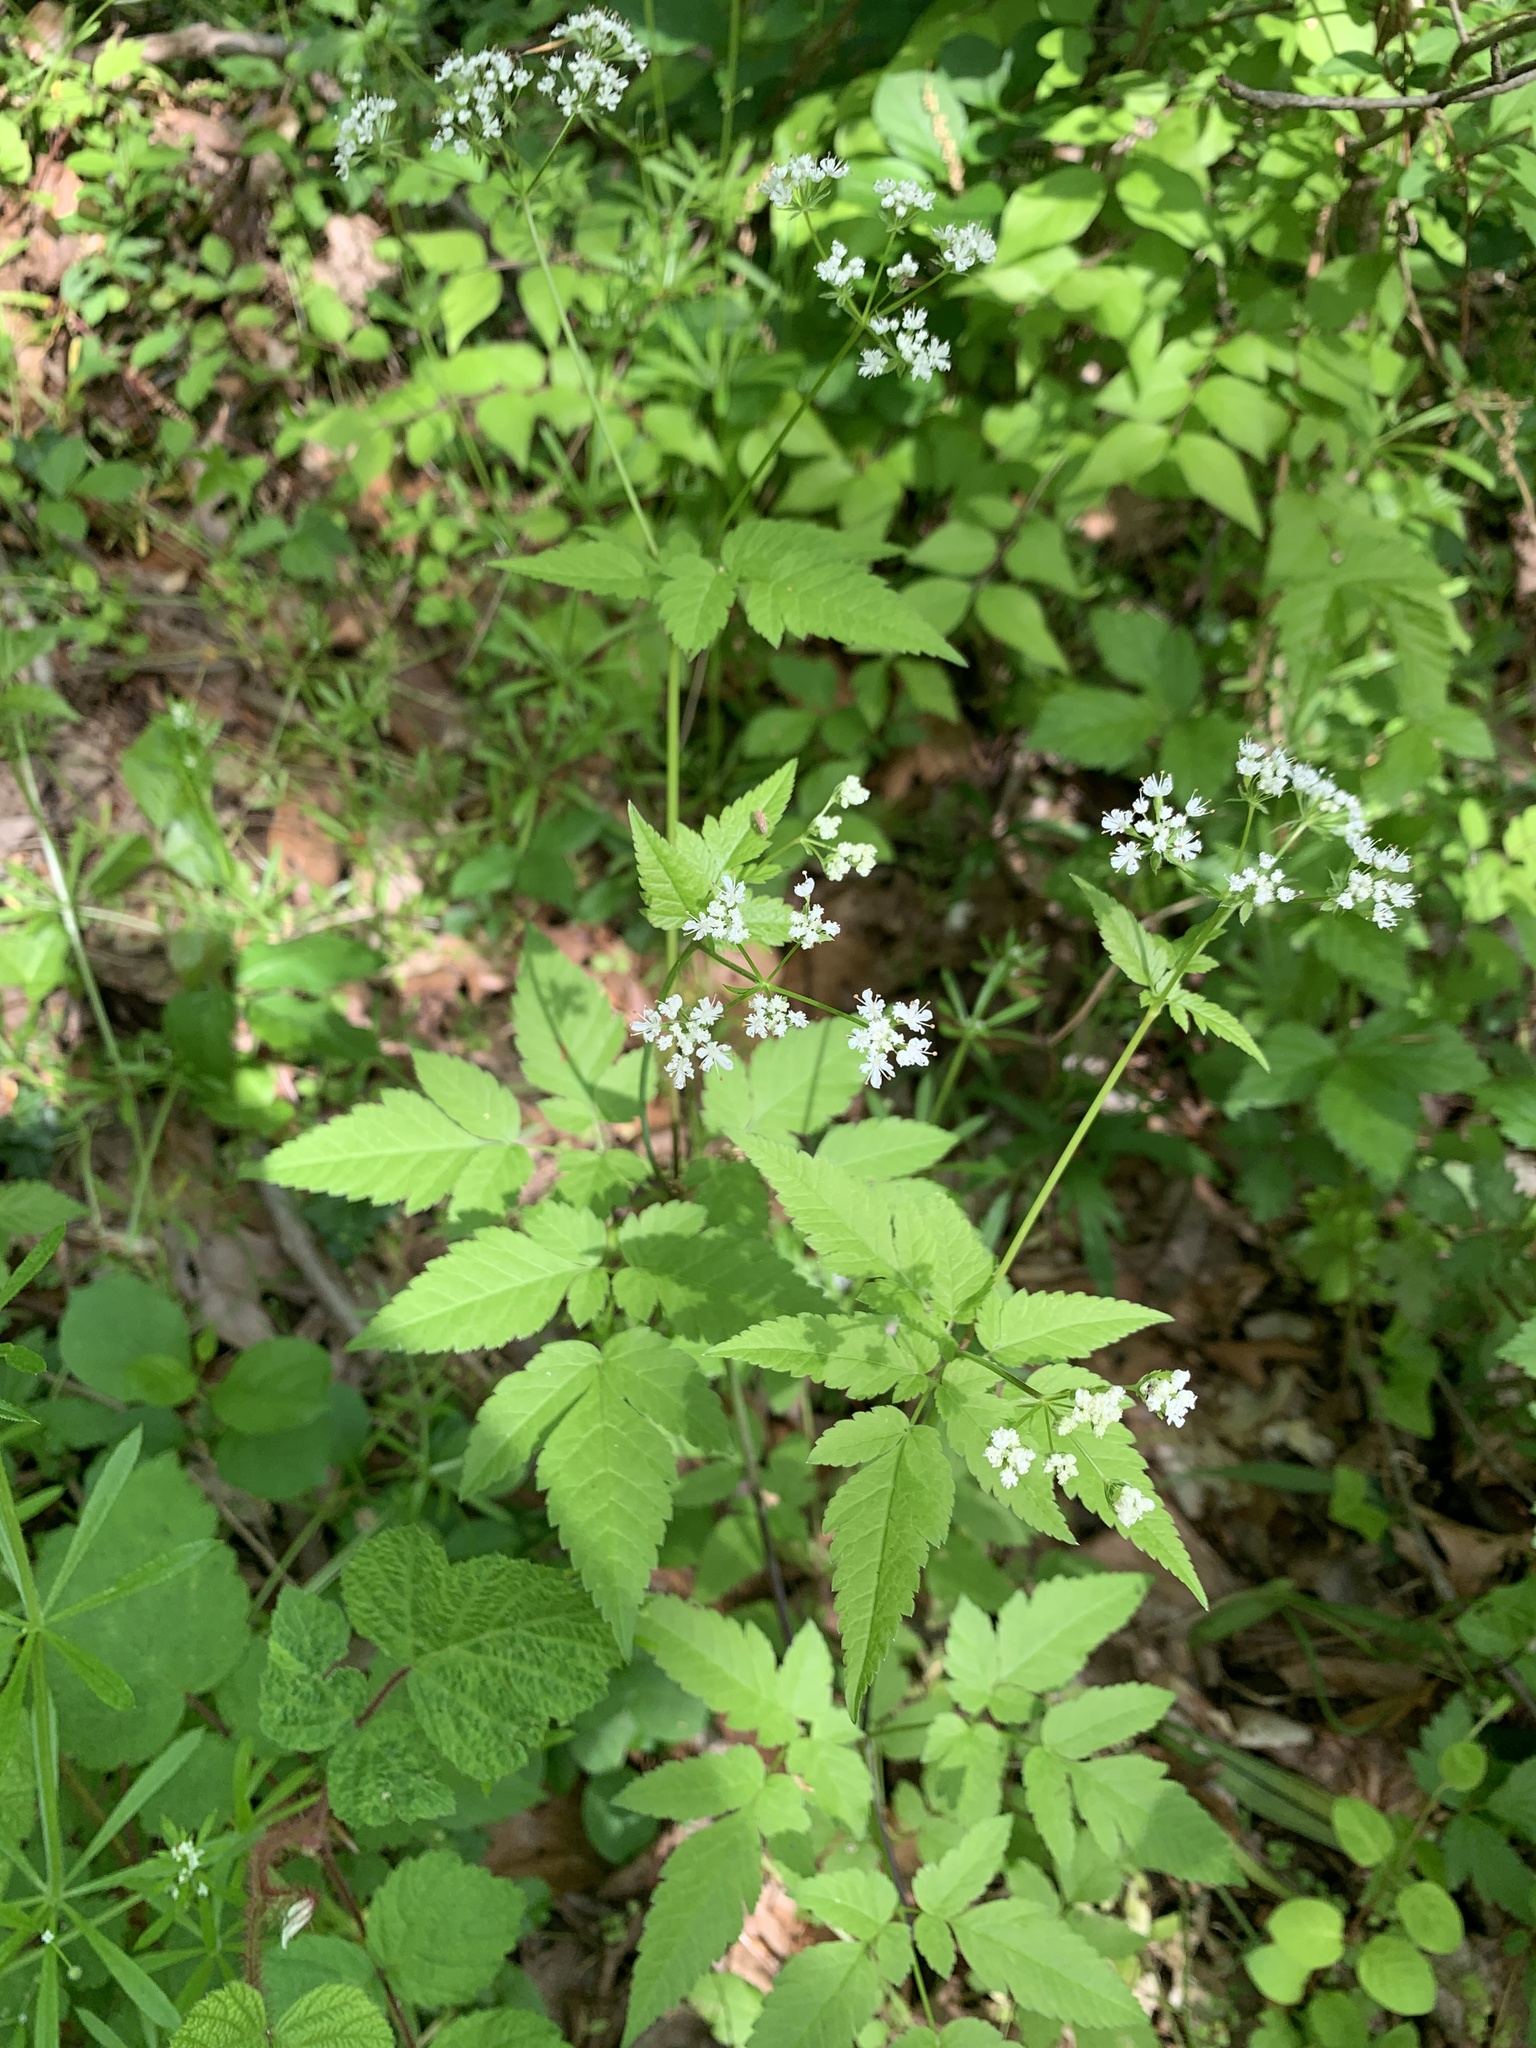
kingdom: Plantae
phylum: Tracheophyta
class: Magnoliopsida
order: Apiales
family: Apiaceae
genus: Osmorhiza
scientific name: Osmorhiza longistylis
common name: Smooth sweet cicely
